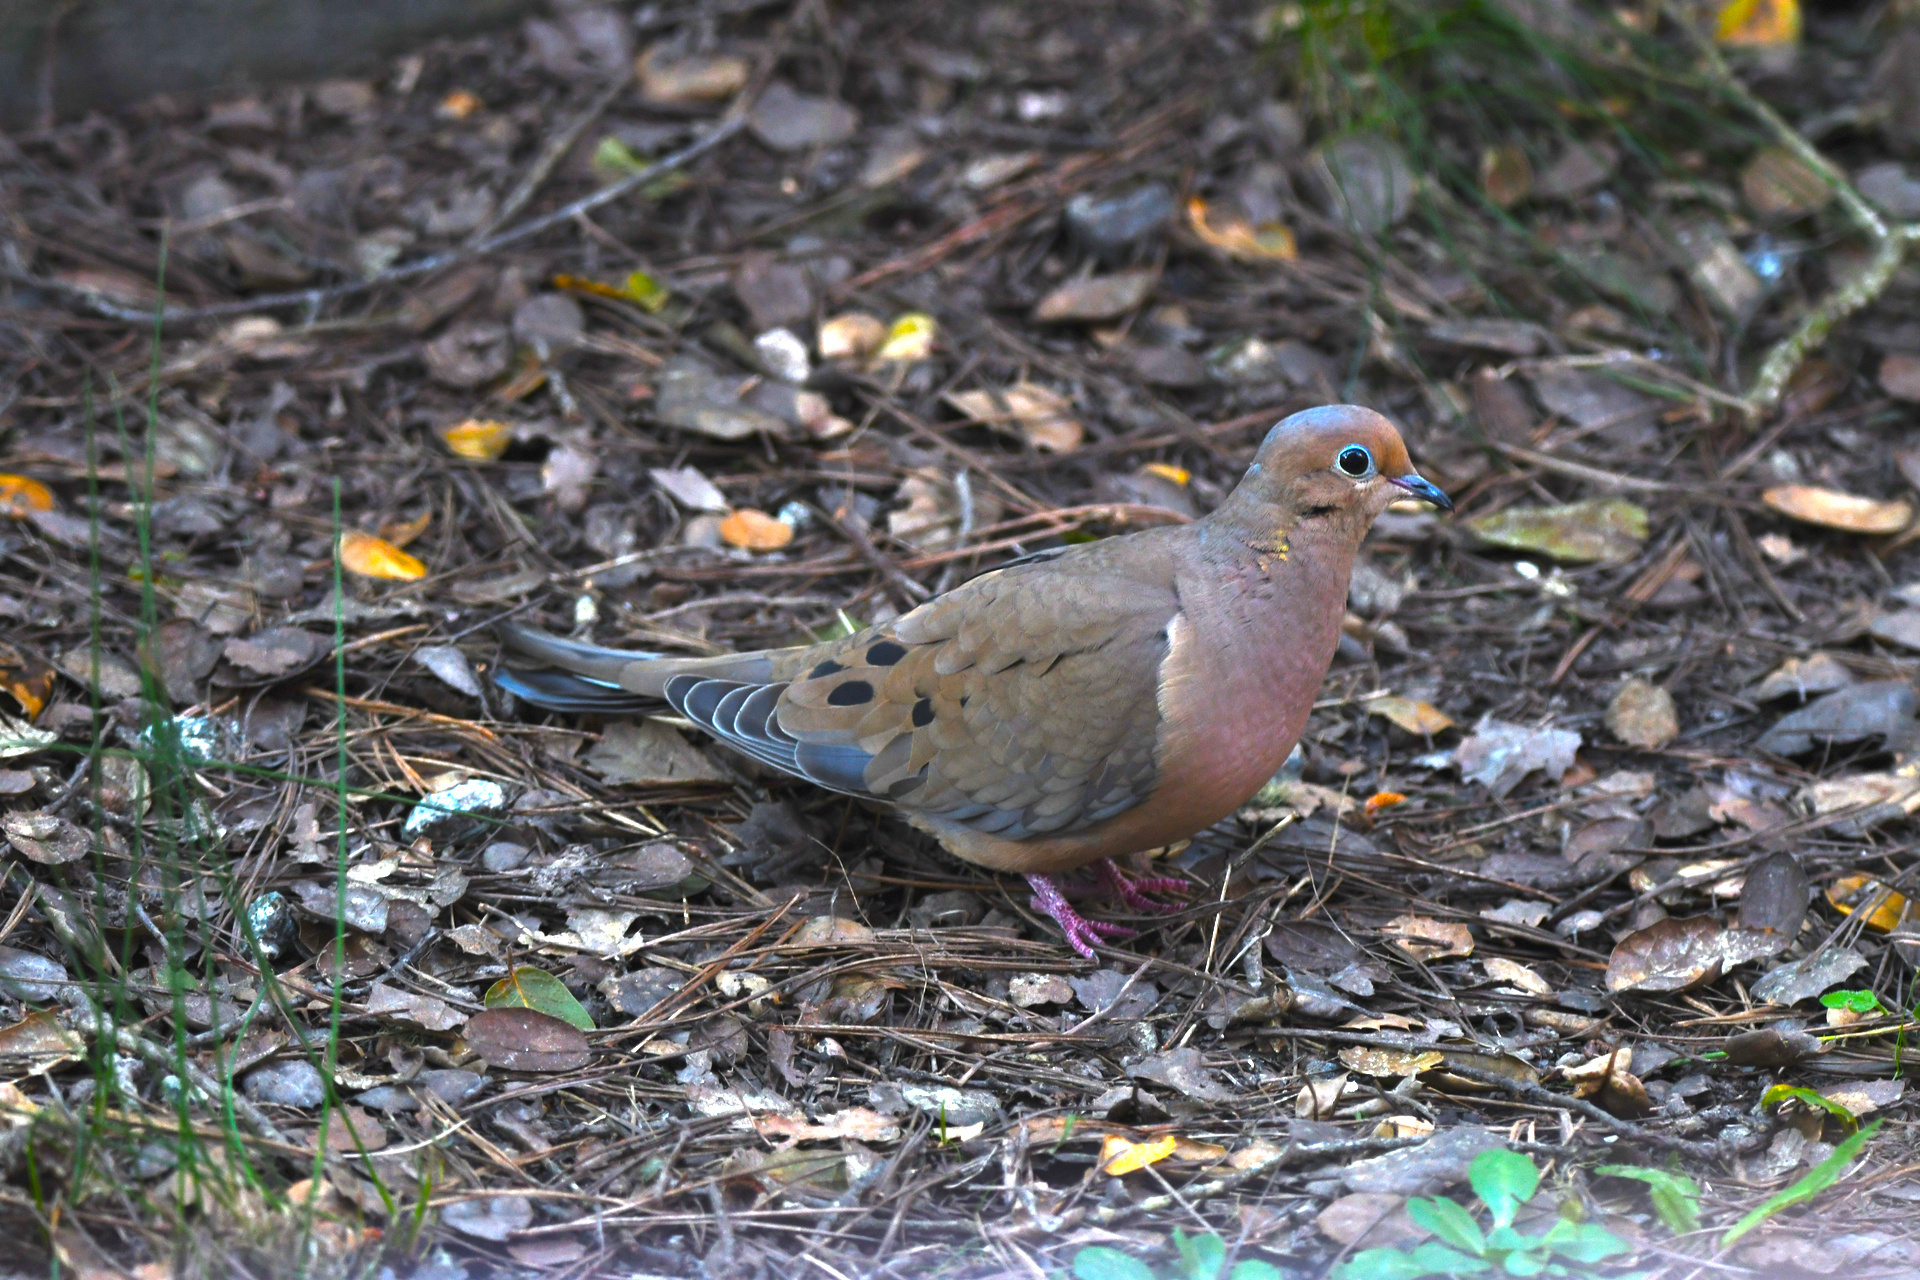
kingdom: Animalia
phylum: Chordata
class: Aves
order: Columbiformes
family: Columbidae
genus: Zenaida
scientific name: Zenaida macroura
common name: Mourning dove
